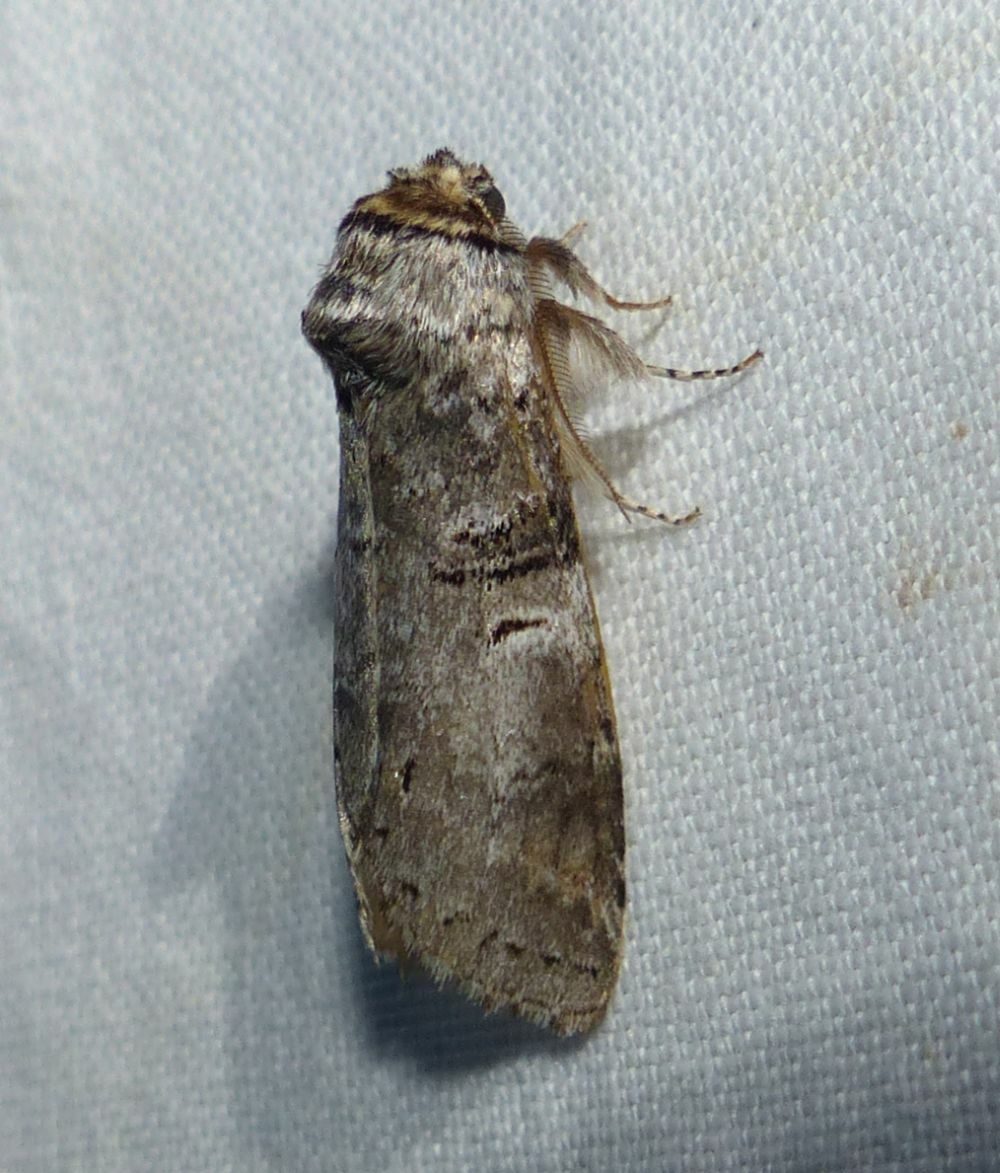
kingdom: Animalia
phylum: Arthropoda
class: Insecta
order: Lepidoptera
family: Notodontidae
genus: Ellida
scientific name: Ellida caniplaga
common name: Linden prominent
